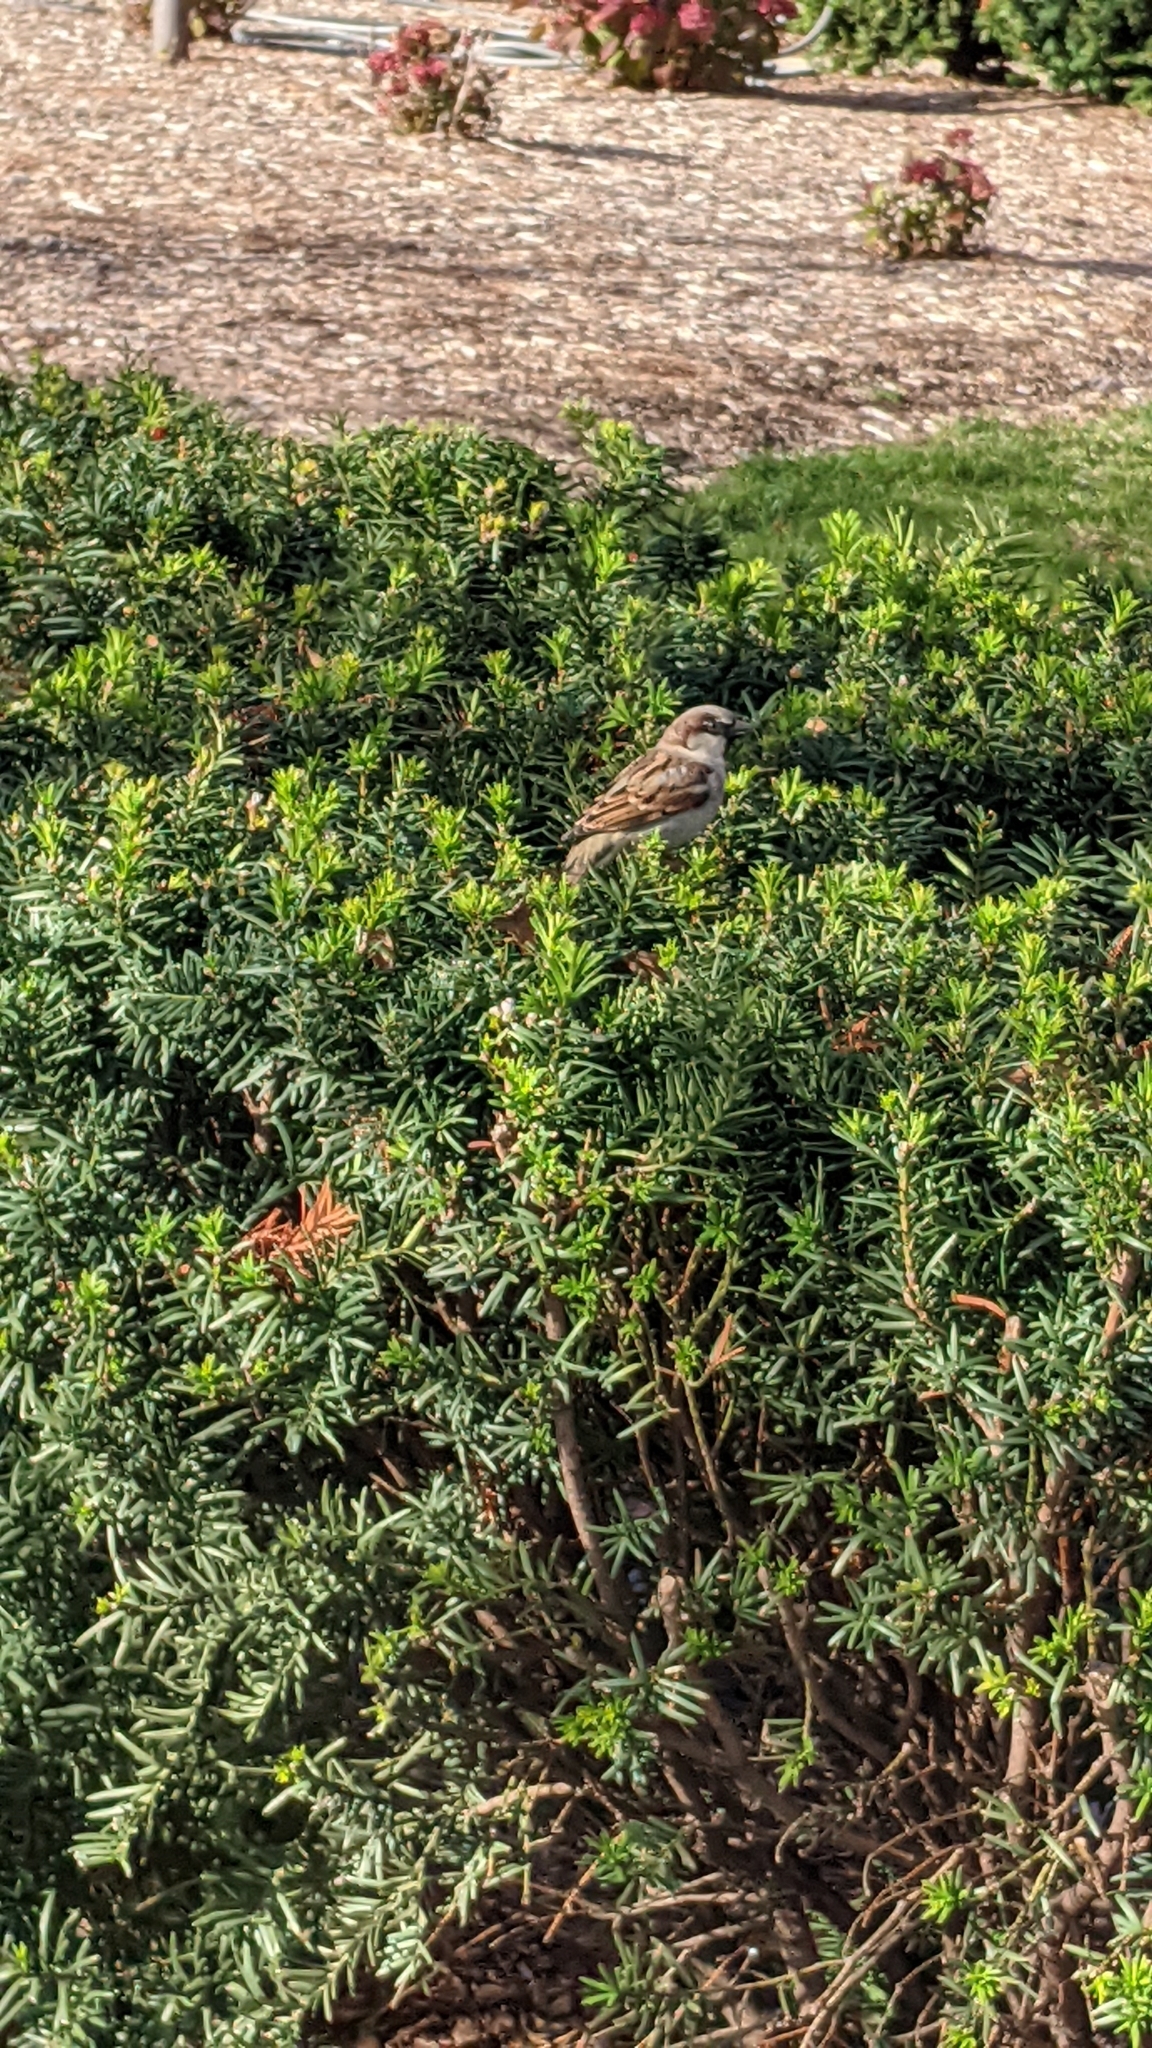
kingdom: Animalia
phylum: Chordata
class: Aves
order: Passeriformes
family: Passeridae
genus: Passer
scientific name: Passer domesticus
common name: House sparrow
